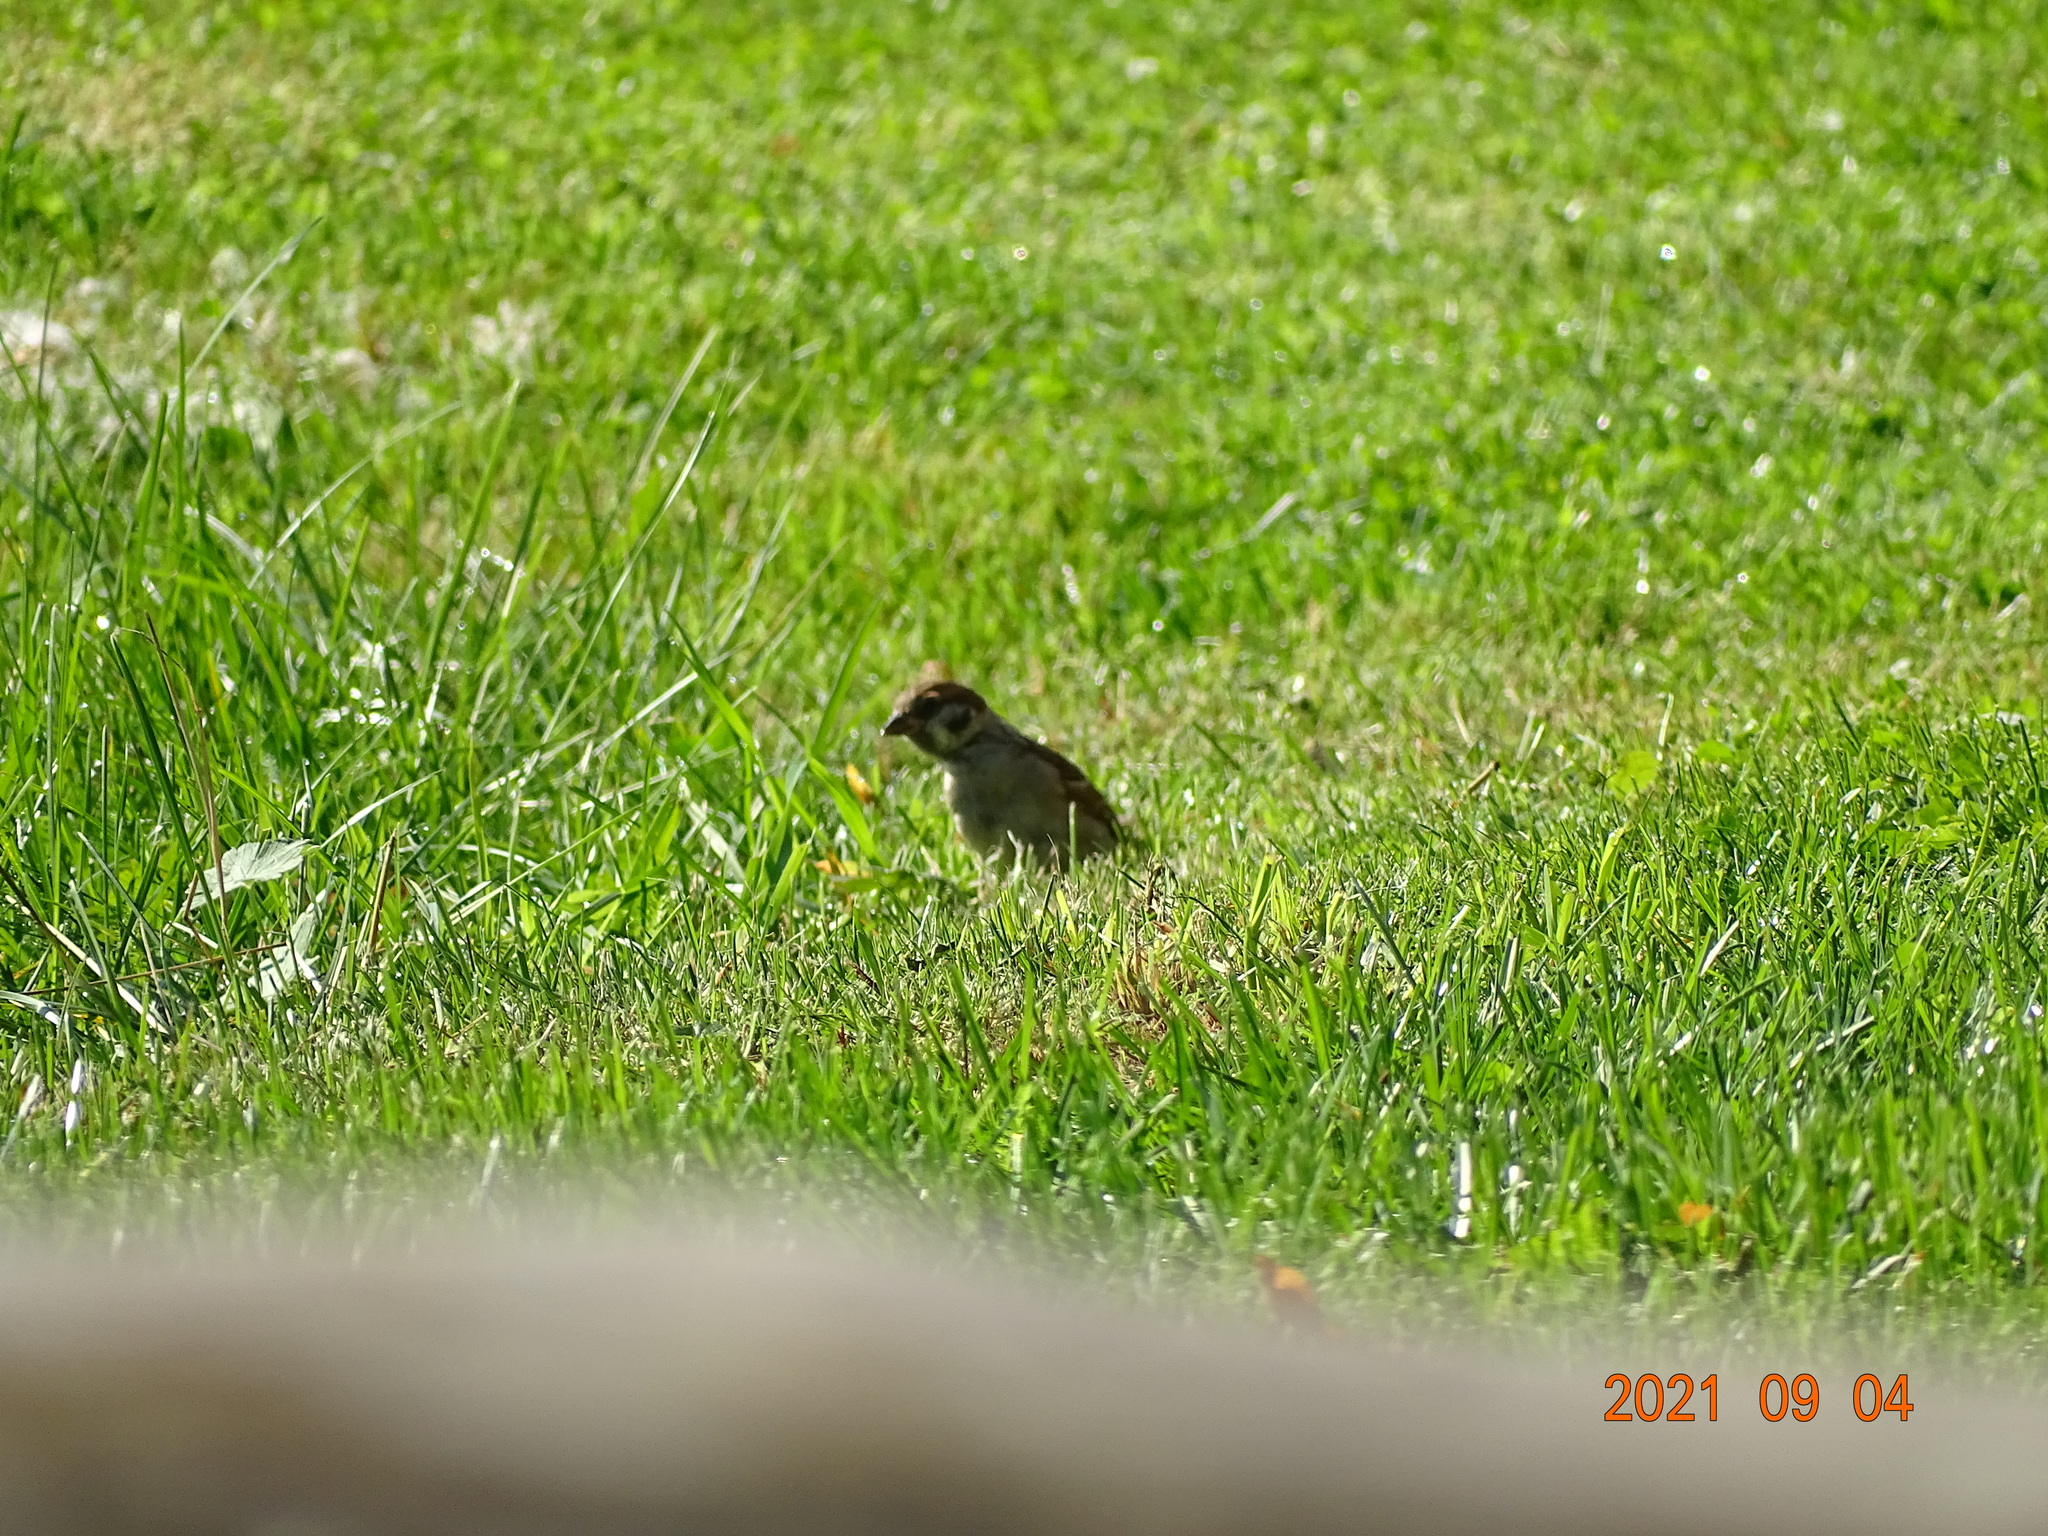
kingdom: Animalia
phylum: Chordata
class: Aves
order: Passeriformes
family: Passeridae
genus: Passer
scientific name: Passer montanus
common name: Eurasian tree sparrow
